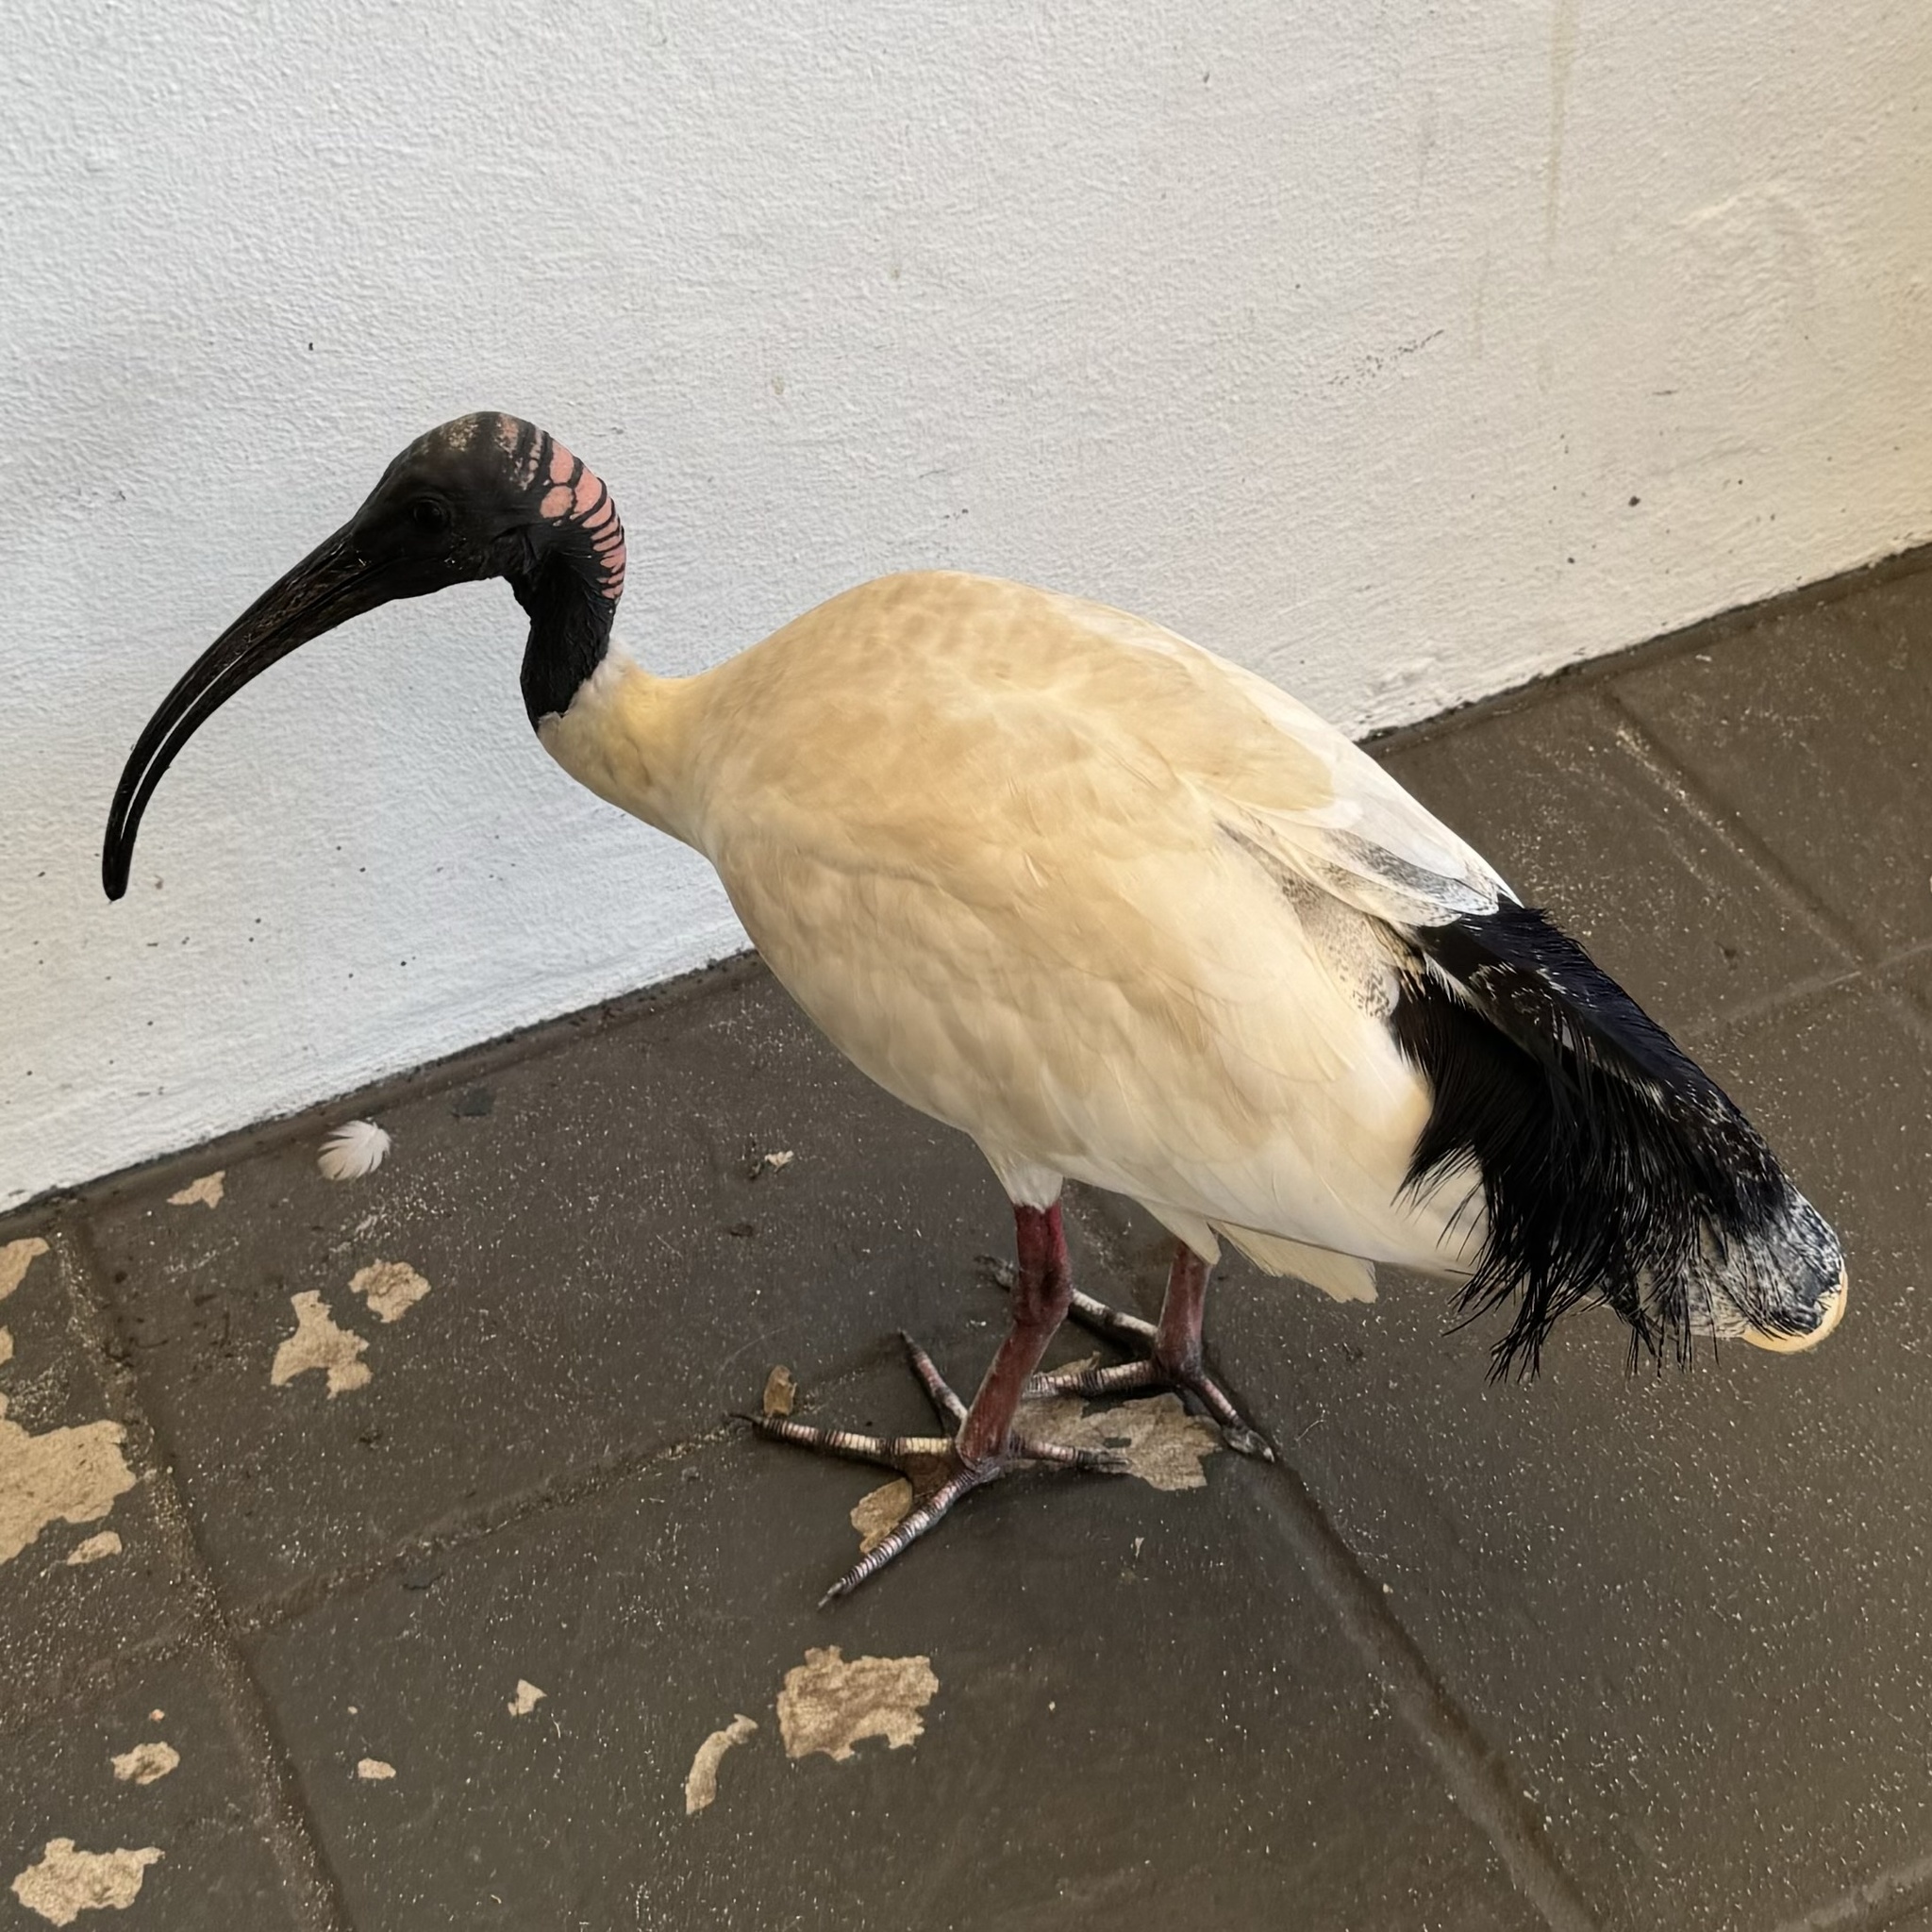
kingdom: Animalia
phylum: Chordata
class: Aves
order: Pelecaniformes
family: Threskiornithidae
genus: Threskiornis
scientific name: Threskiornis molucca
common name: Australian white ibis
